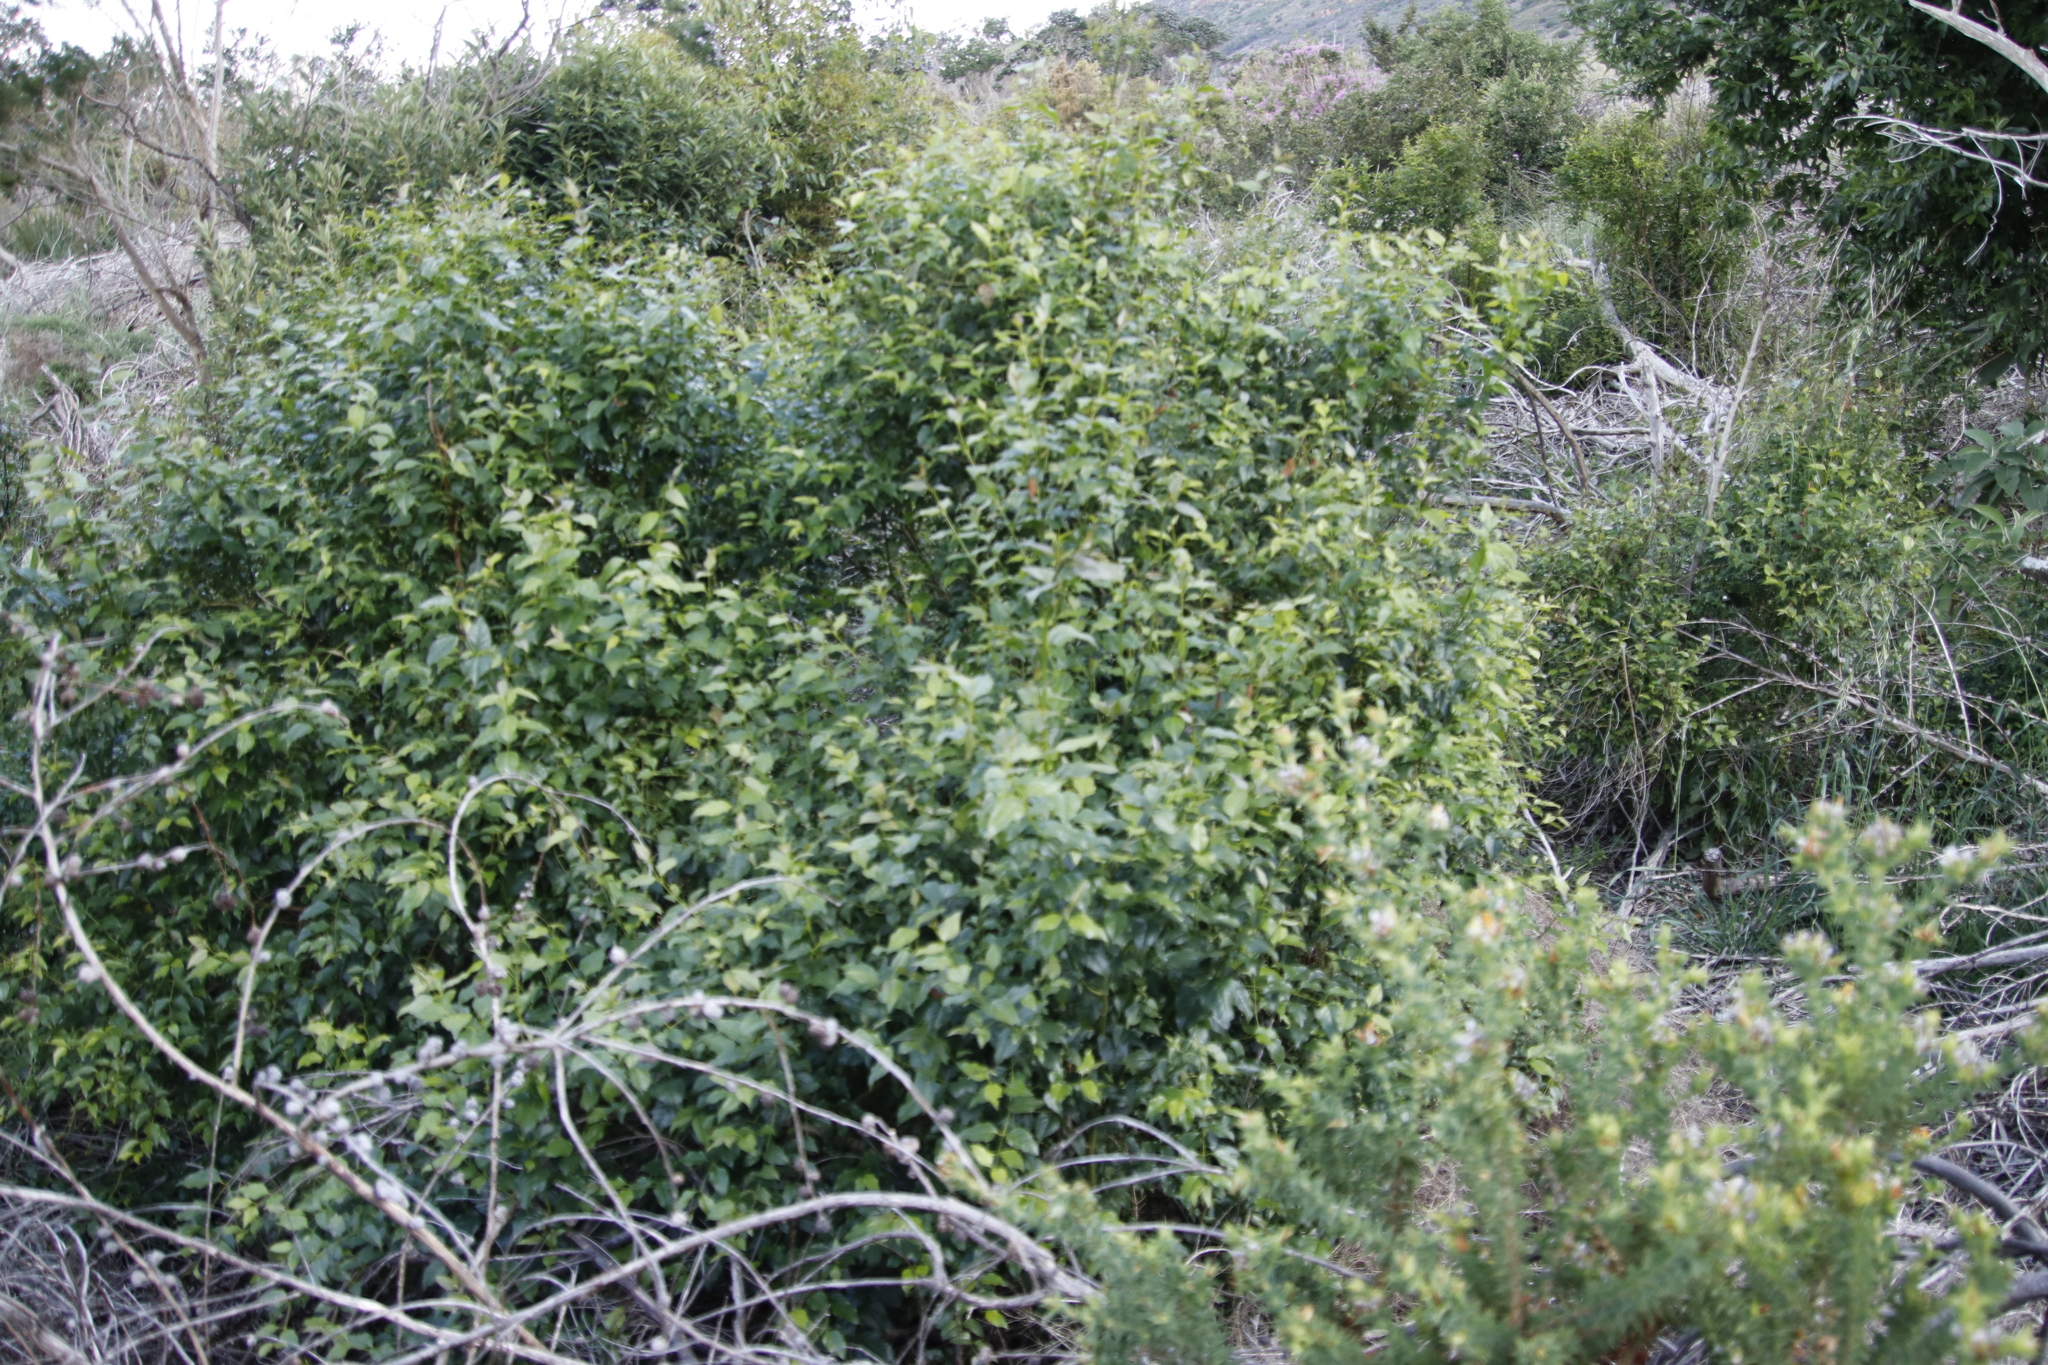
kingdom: Plantae
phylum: Tracheophyta
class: Magnoliopsida
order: Lamiales
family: Stilbaceae
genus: Halleria
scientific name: Halleria lucida
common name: Tree fuschia
